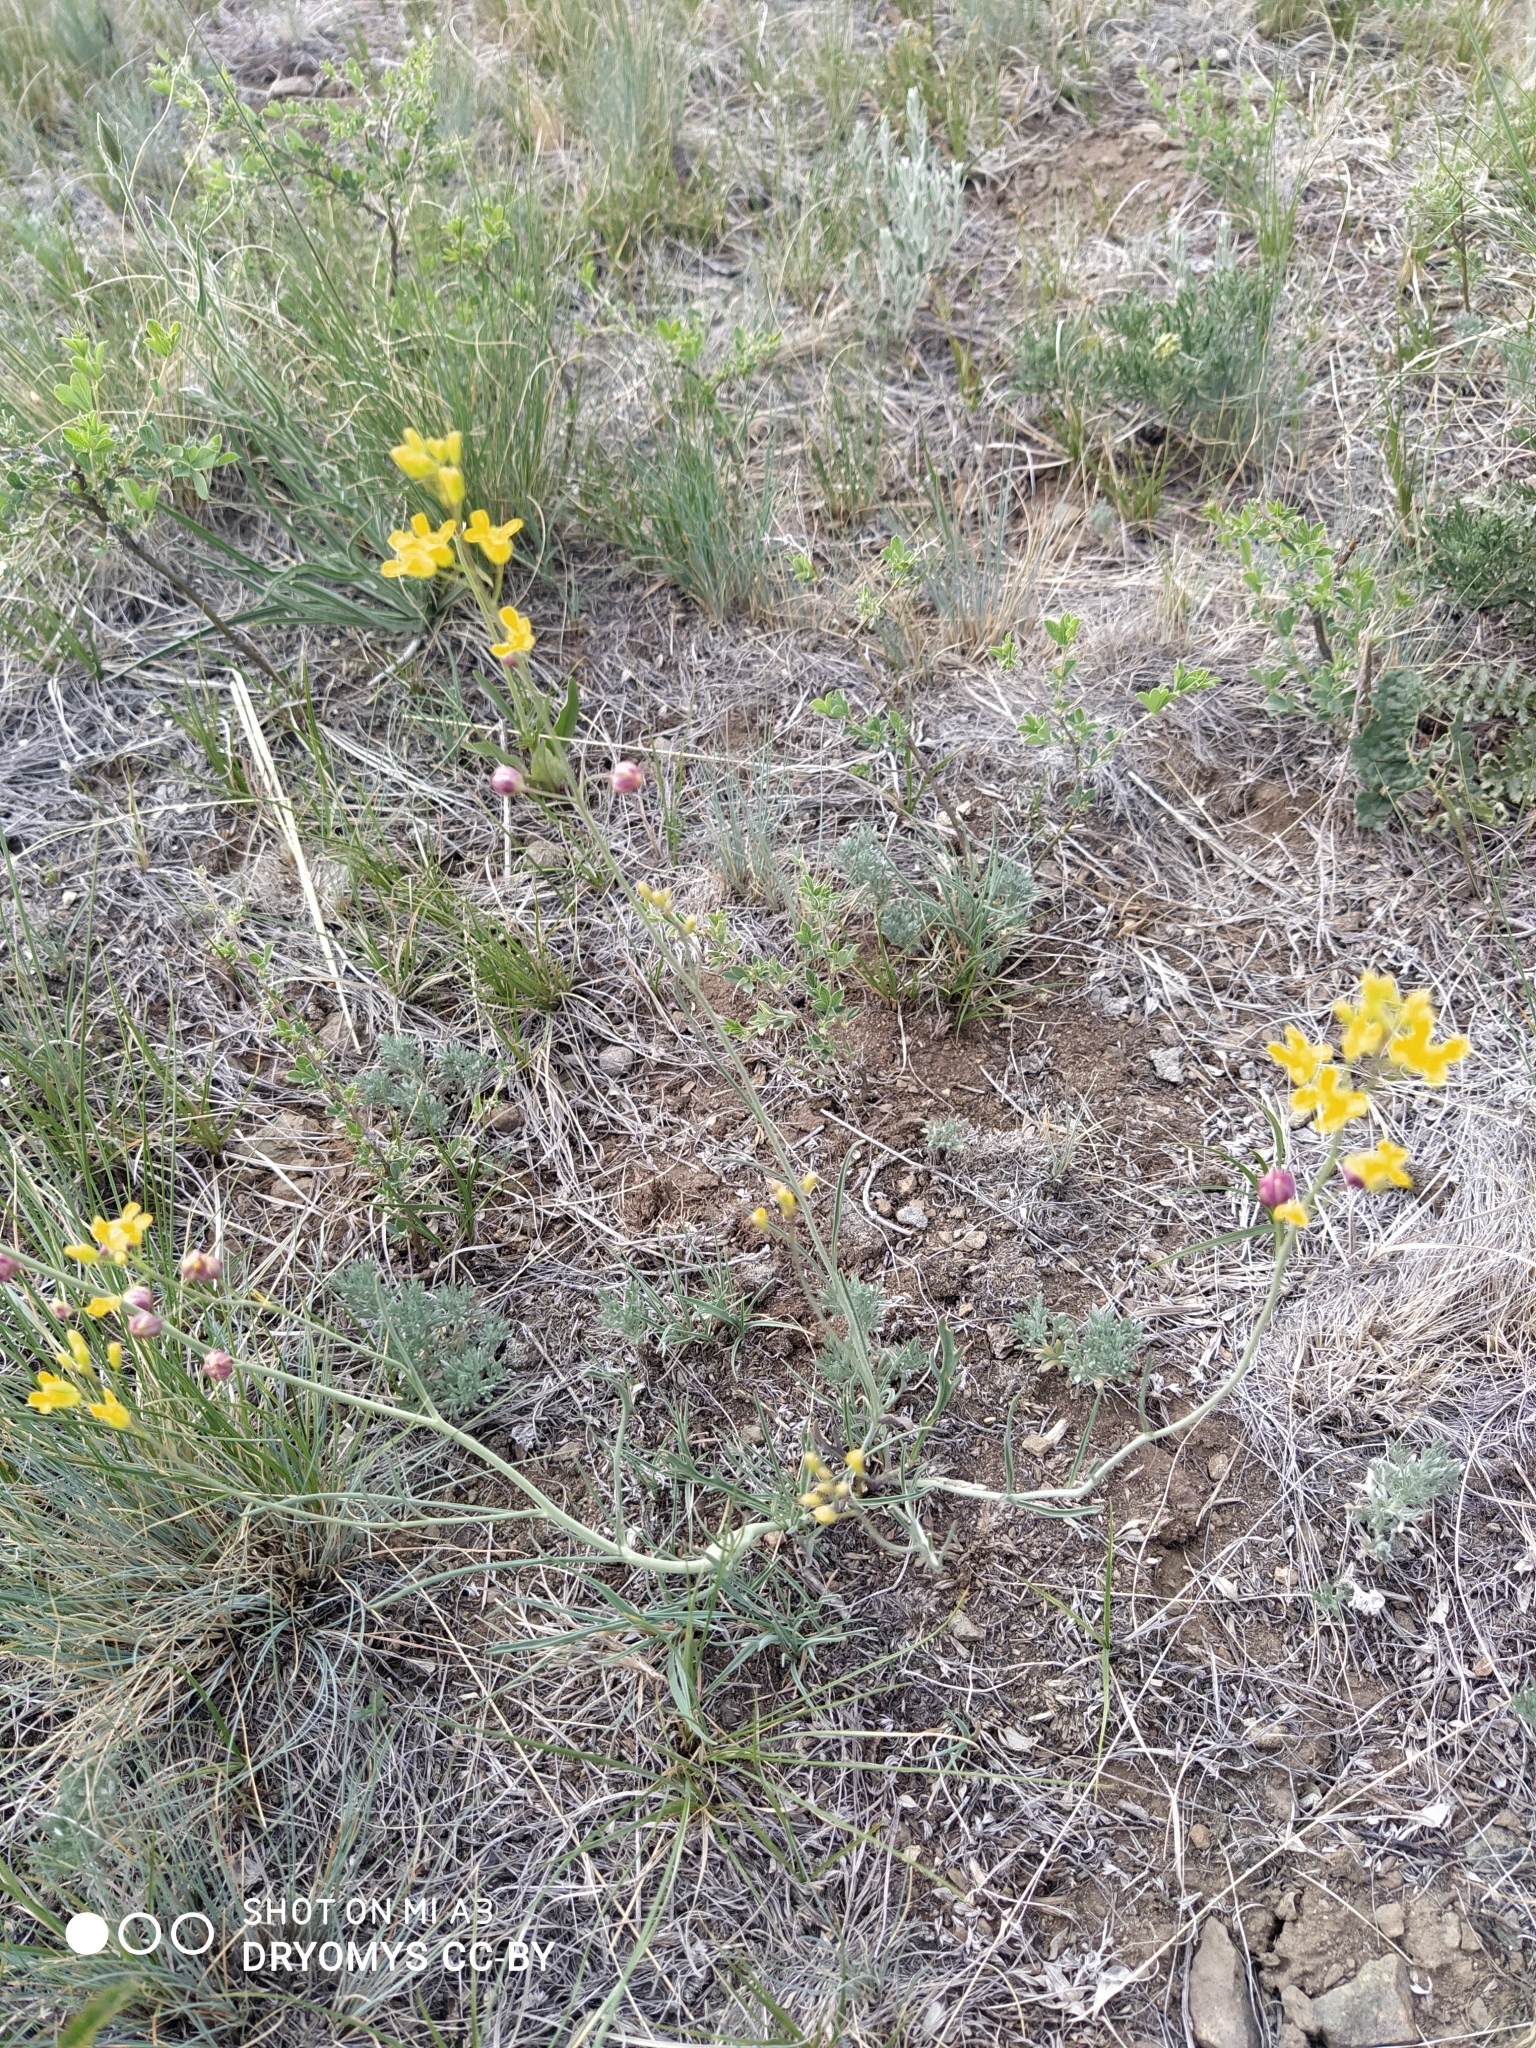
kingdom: Plantae
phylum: Tracheophyta
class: Magnoliopsida
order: Brassicales
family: Brassicaceae
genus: Sisymbrium
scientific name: Sisymbrium polymorphum
